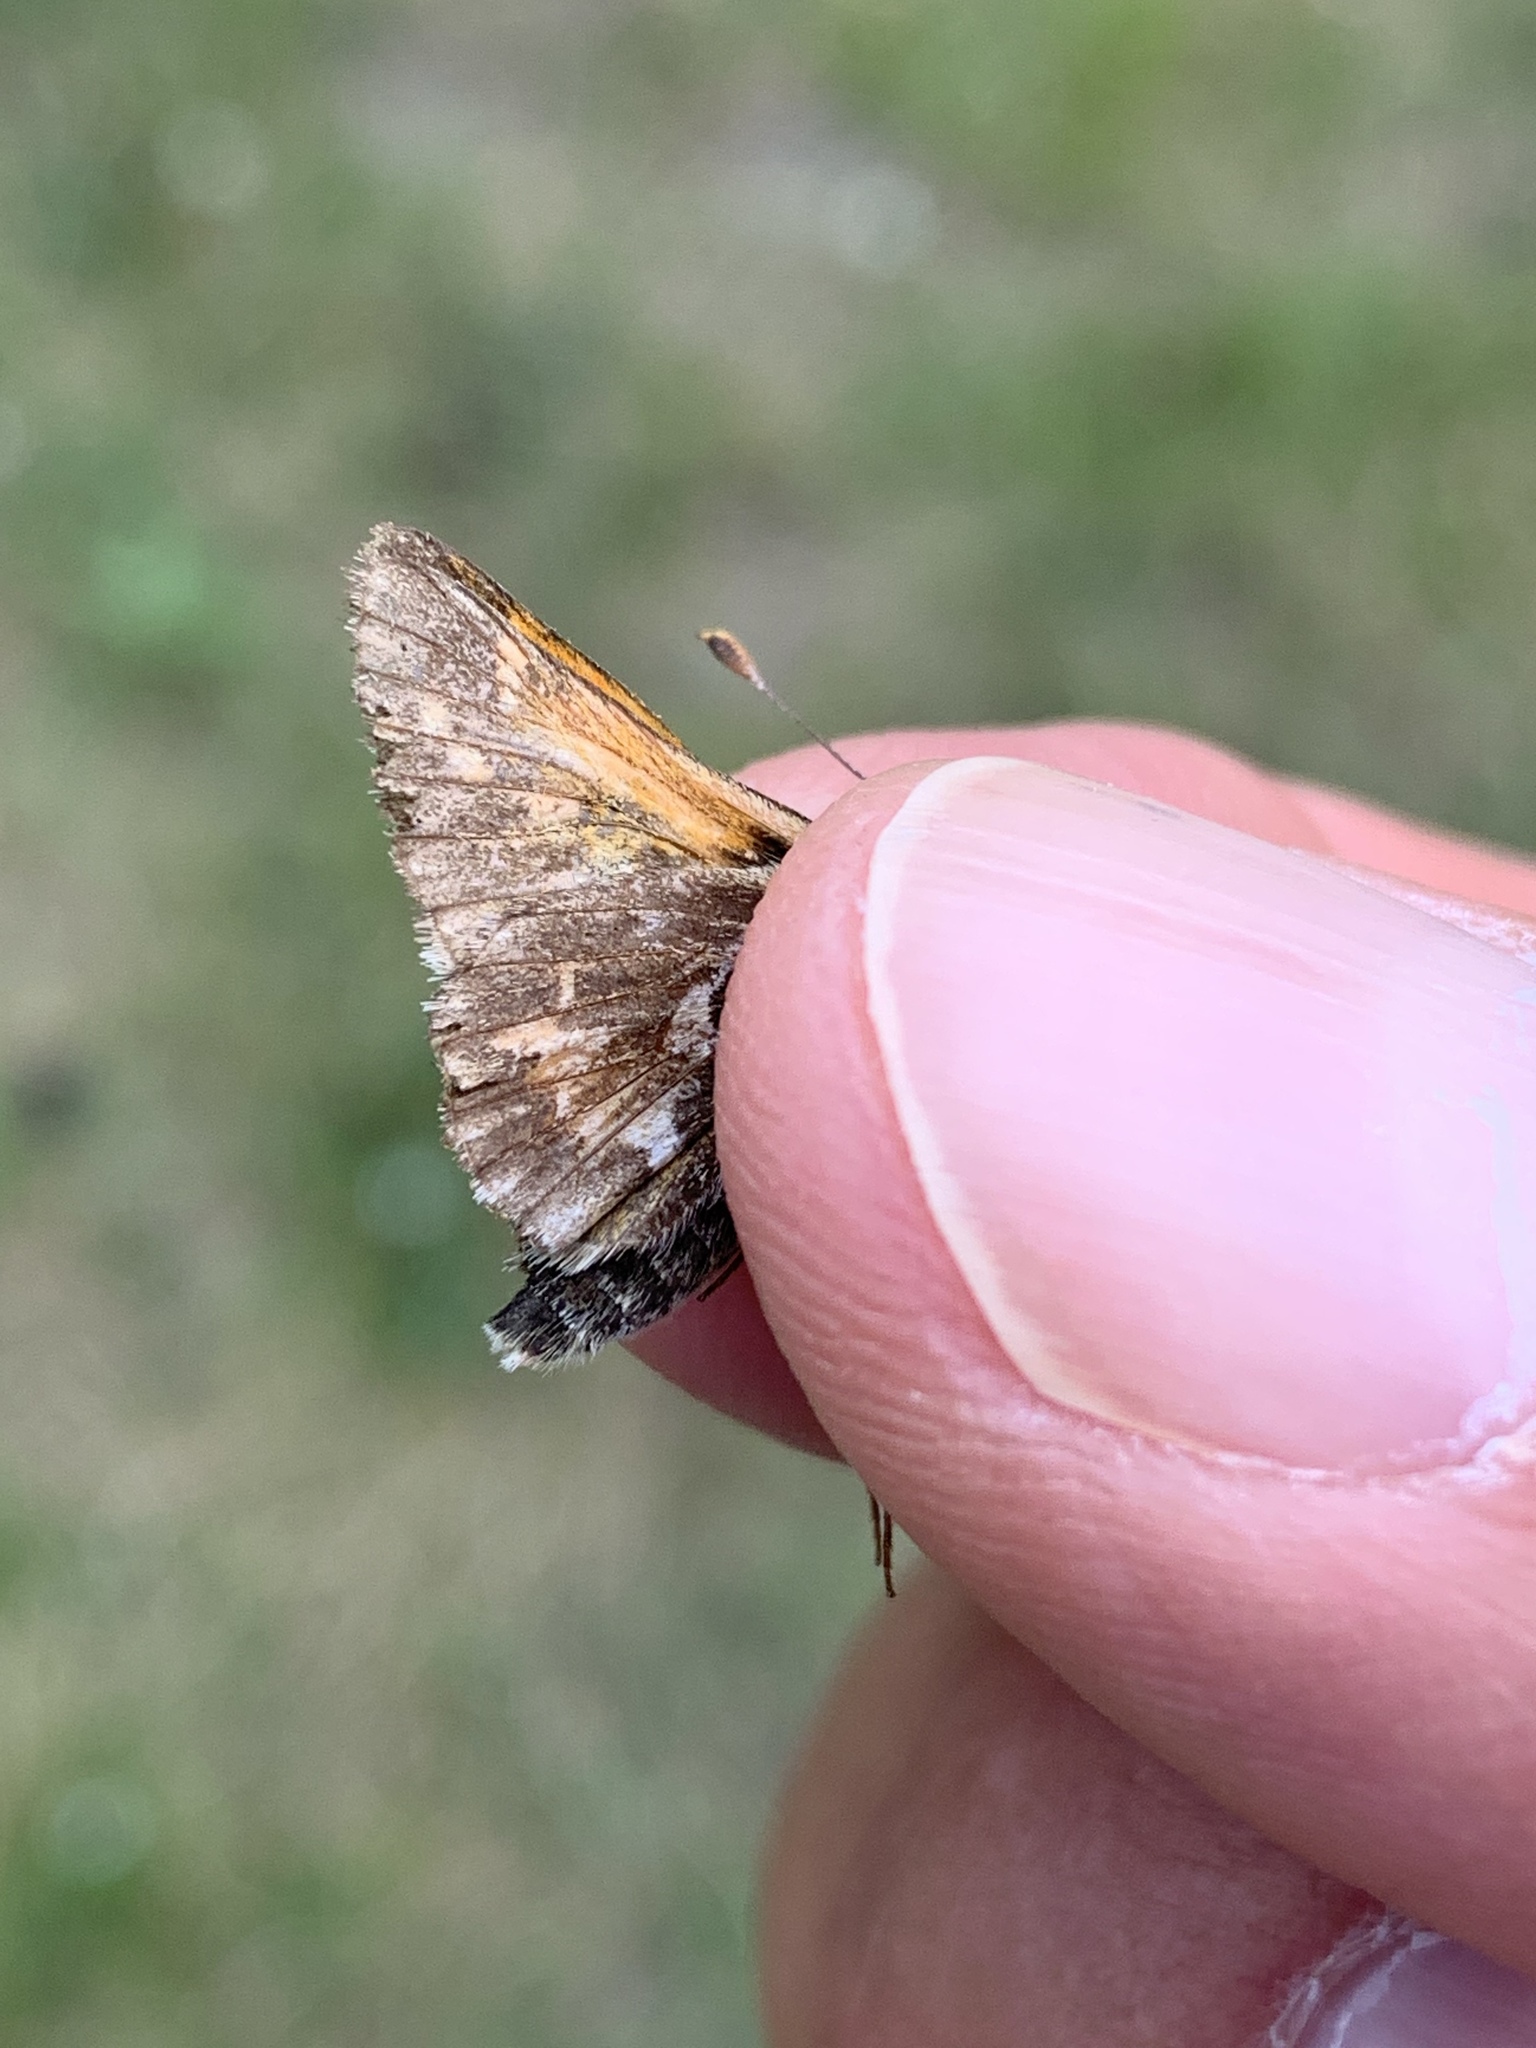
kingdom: Animalia
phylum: Arthropoda
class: Insecta
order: Lepidoptera
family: Hesperiidae
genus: Polites
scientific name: Polites sabuleti
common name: Sandhill skipper
